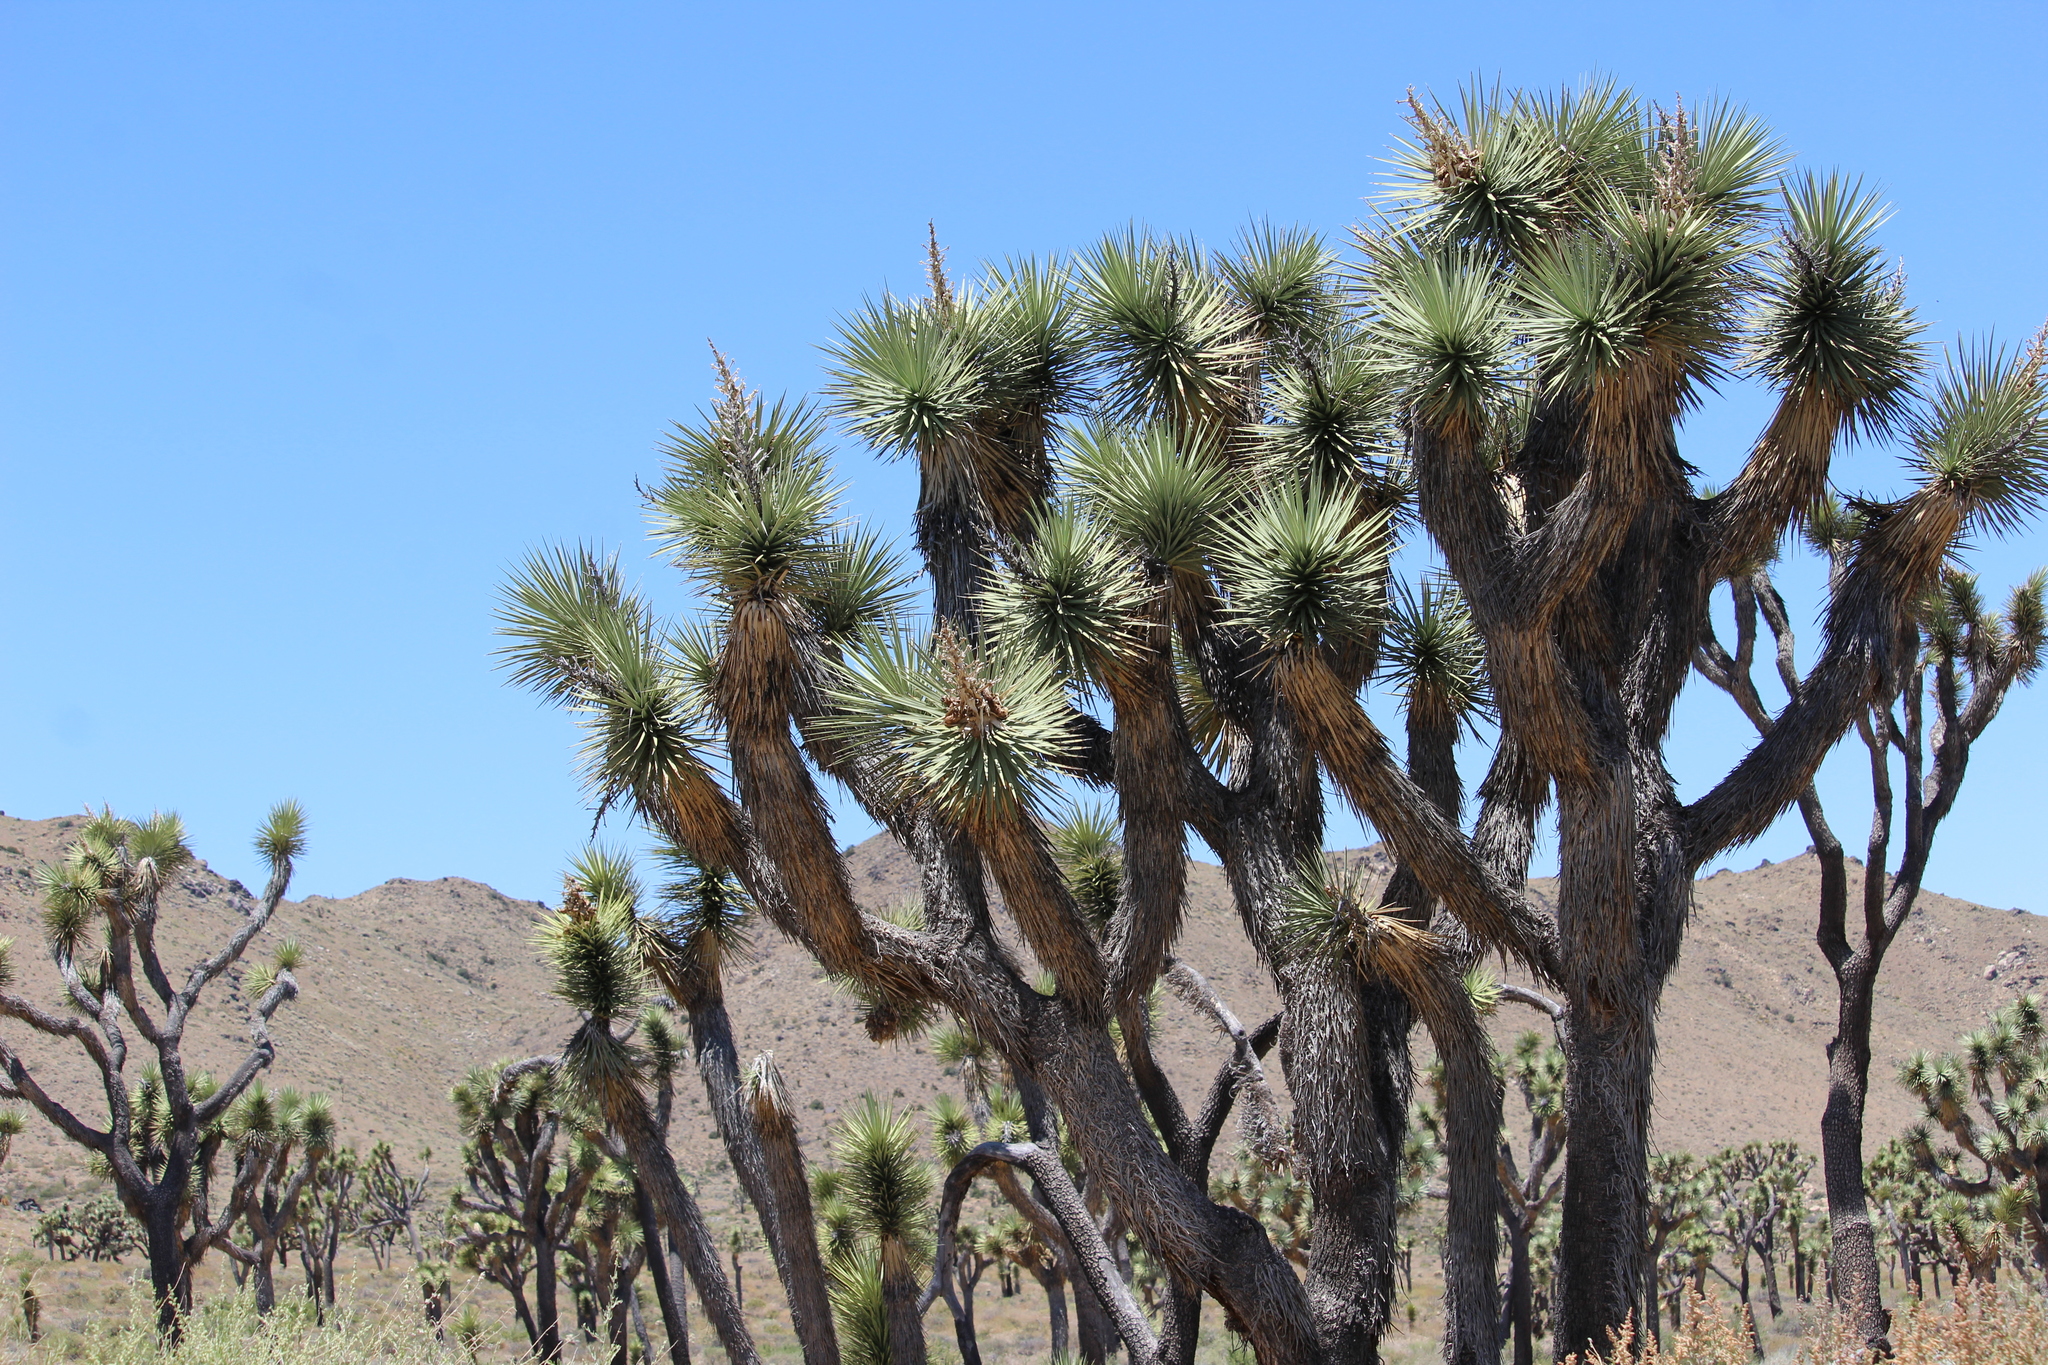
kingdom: Plantae
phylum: Tracheophyta
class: Liliopsida
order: Asparagales
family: Asparagaceae
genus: Yucca
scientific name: Yucca brevifolia
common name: Joshua tree
